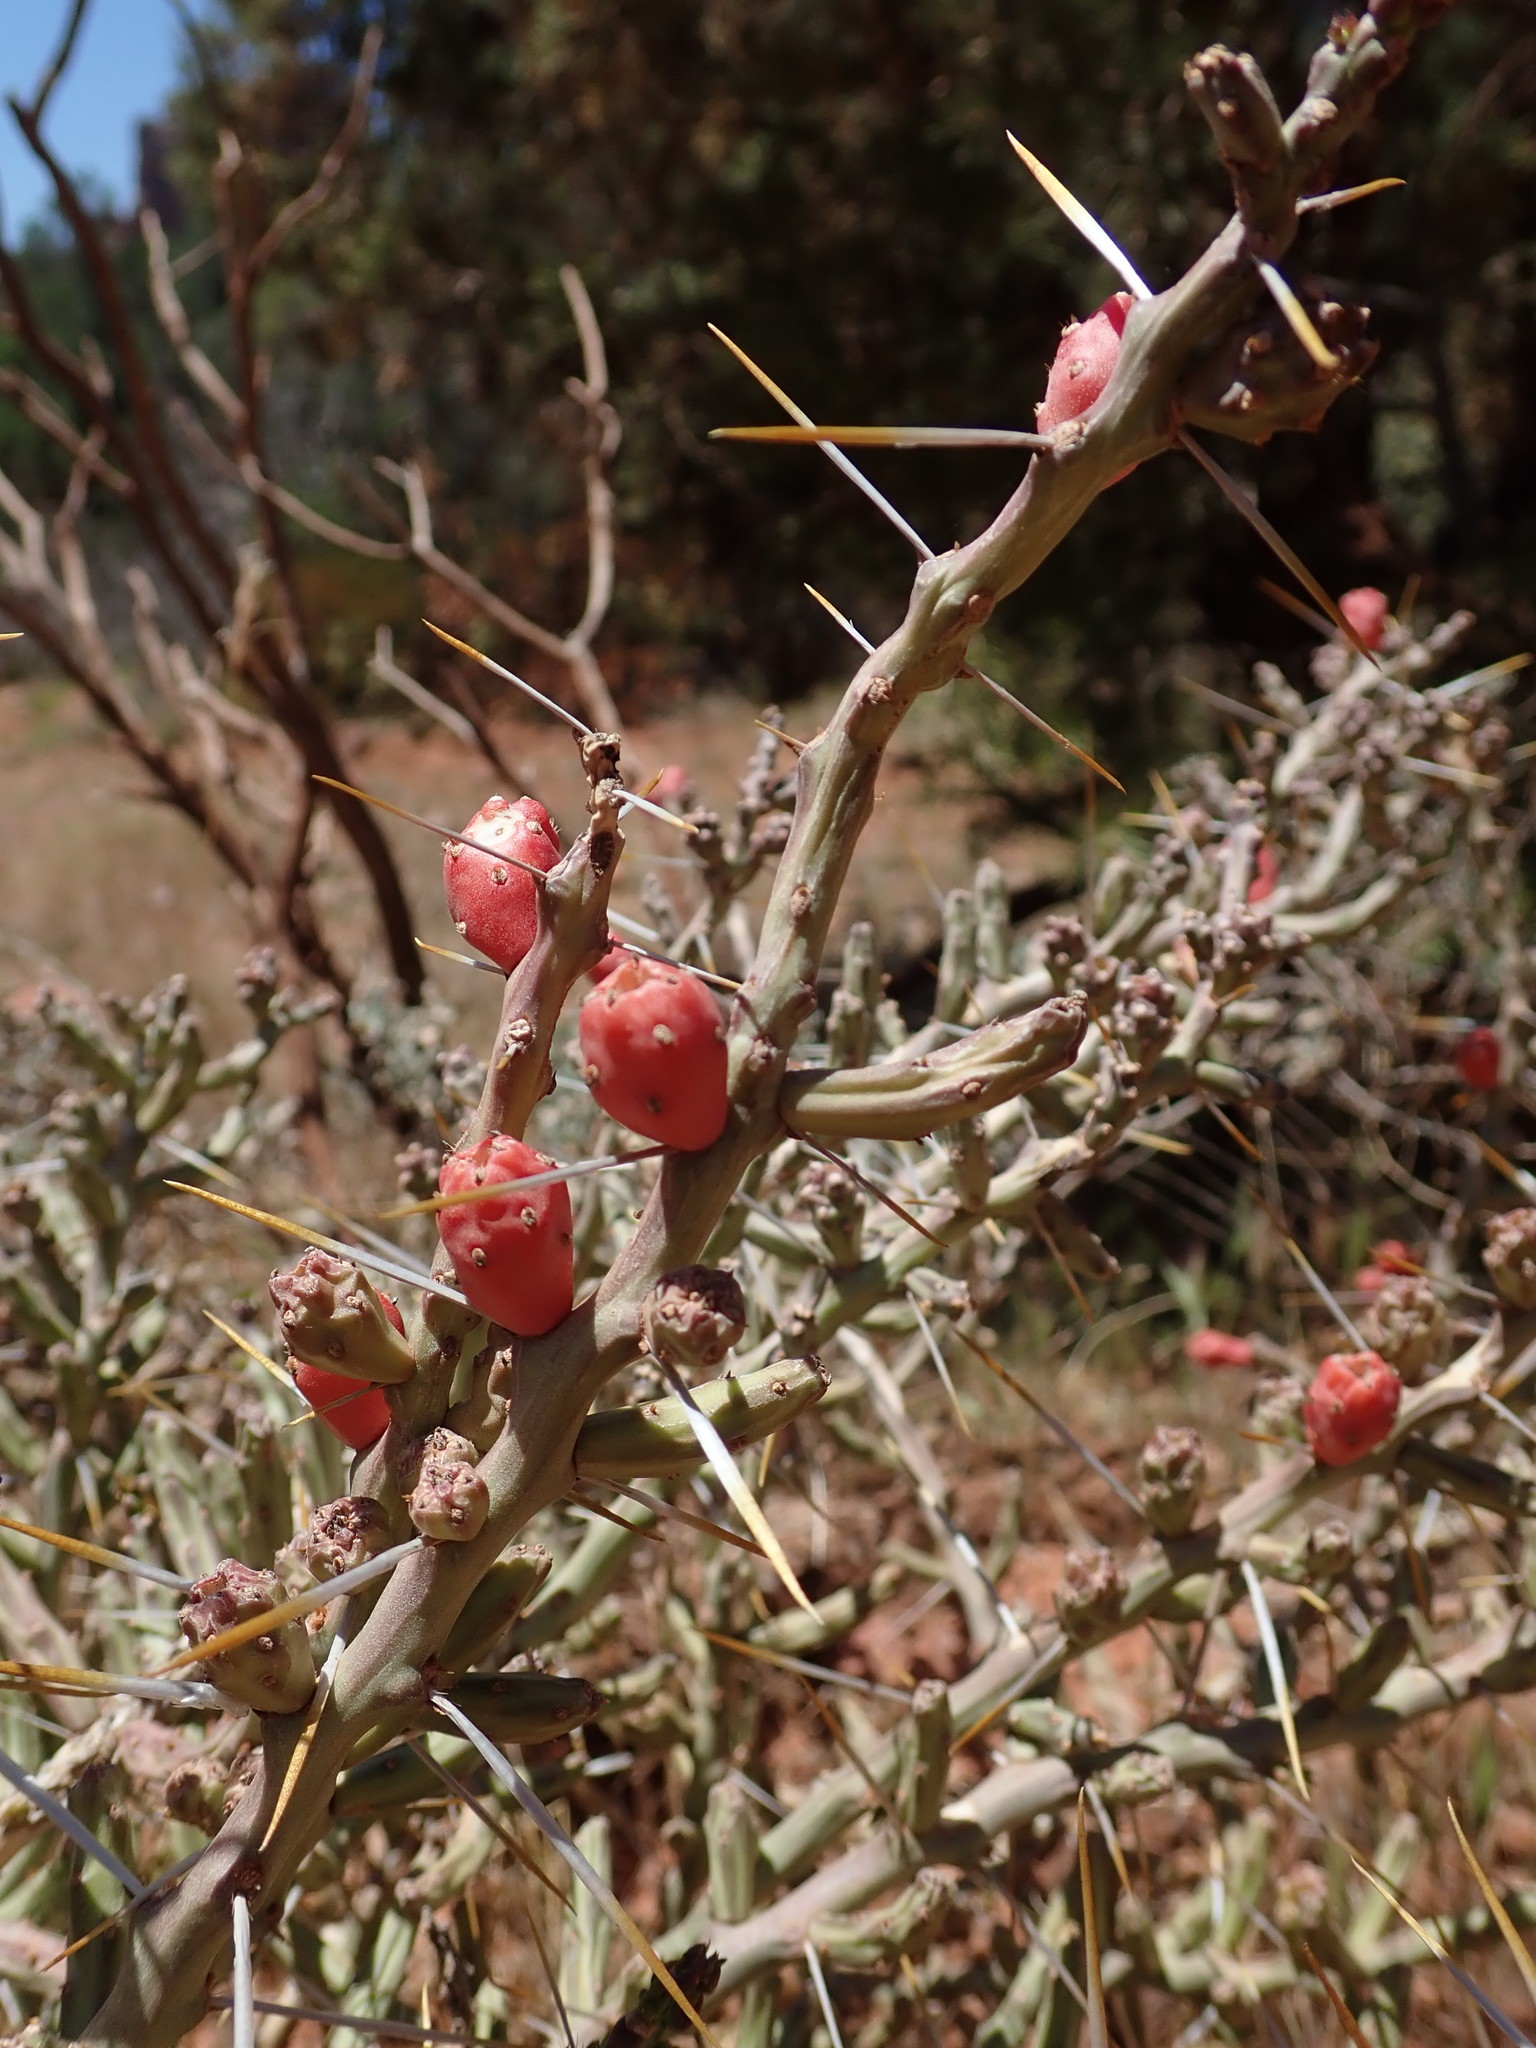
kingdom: Plantae
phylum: Tracheophyta
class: Magnoliopsida
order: Caryophyllales
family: Cactaceae
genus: Cylindropuntia
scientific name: Cylindropuntia leptocaulis
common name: Christmas cactus
